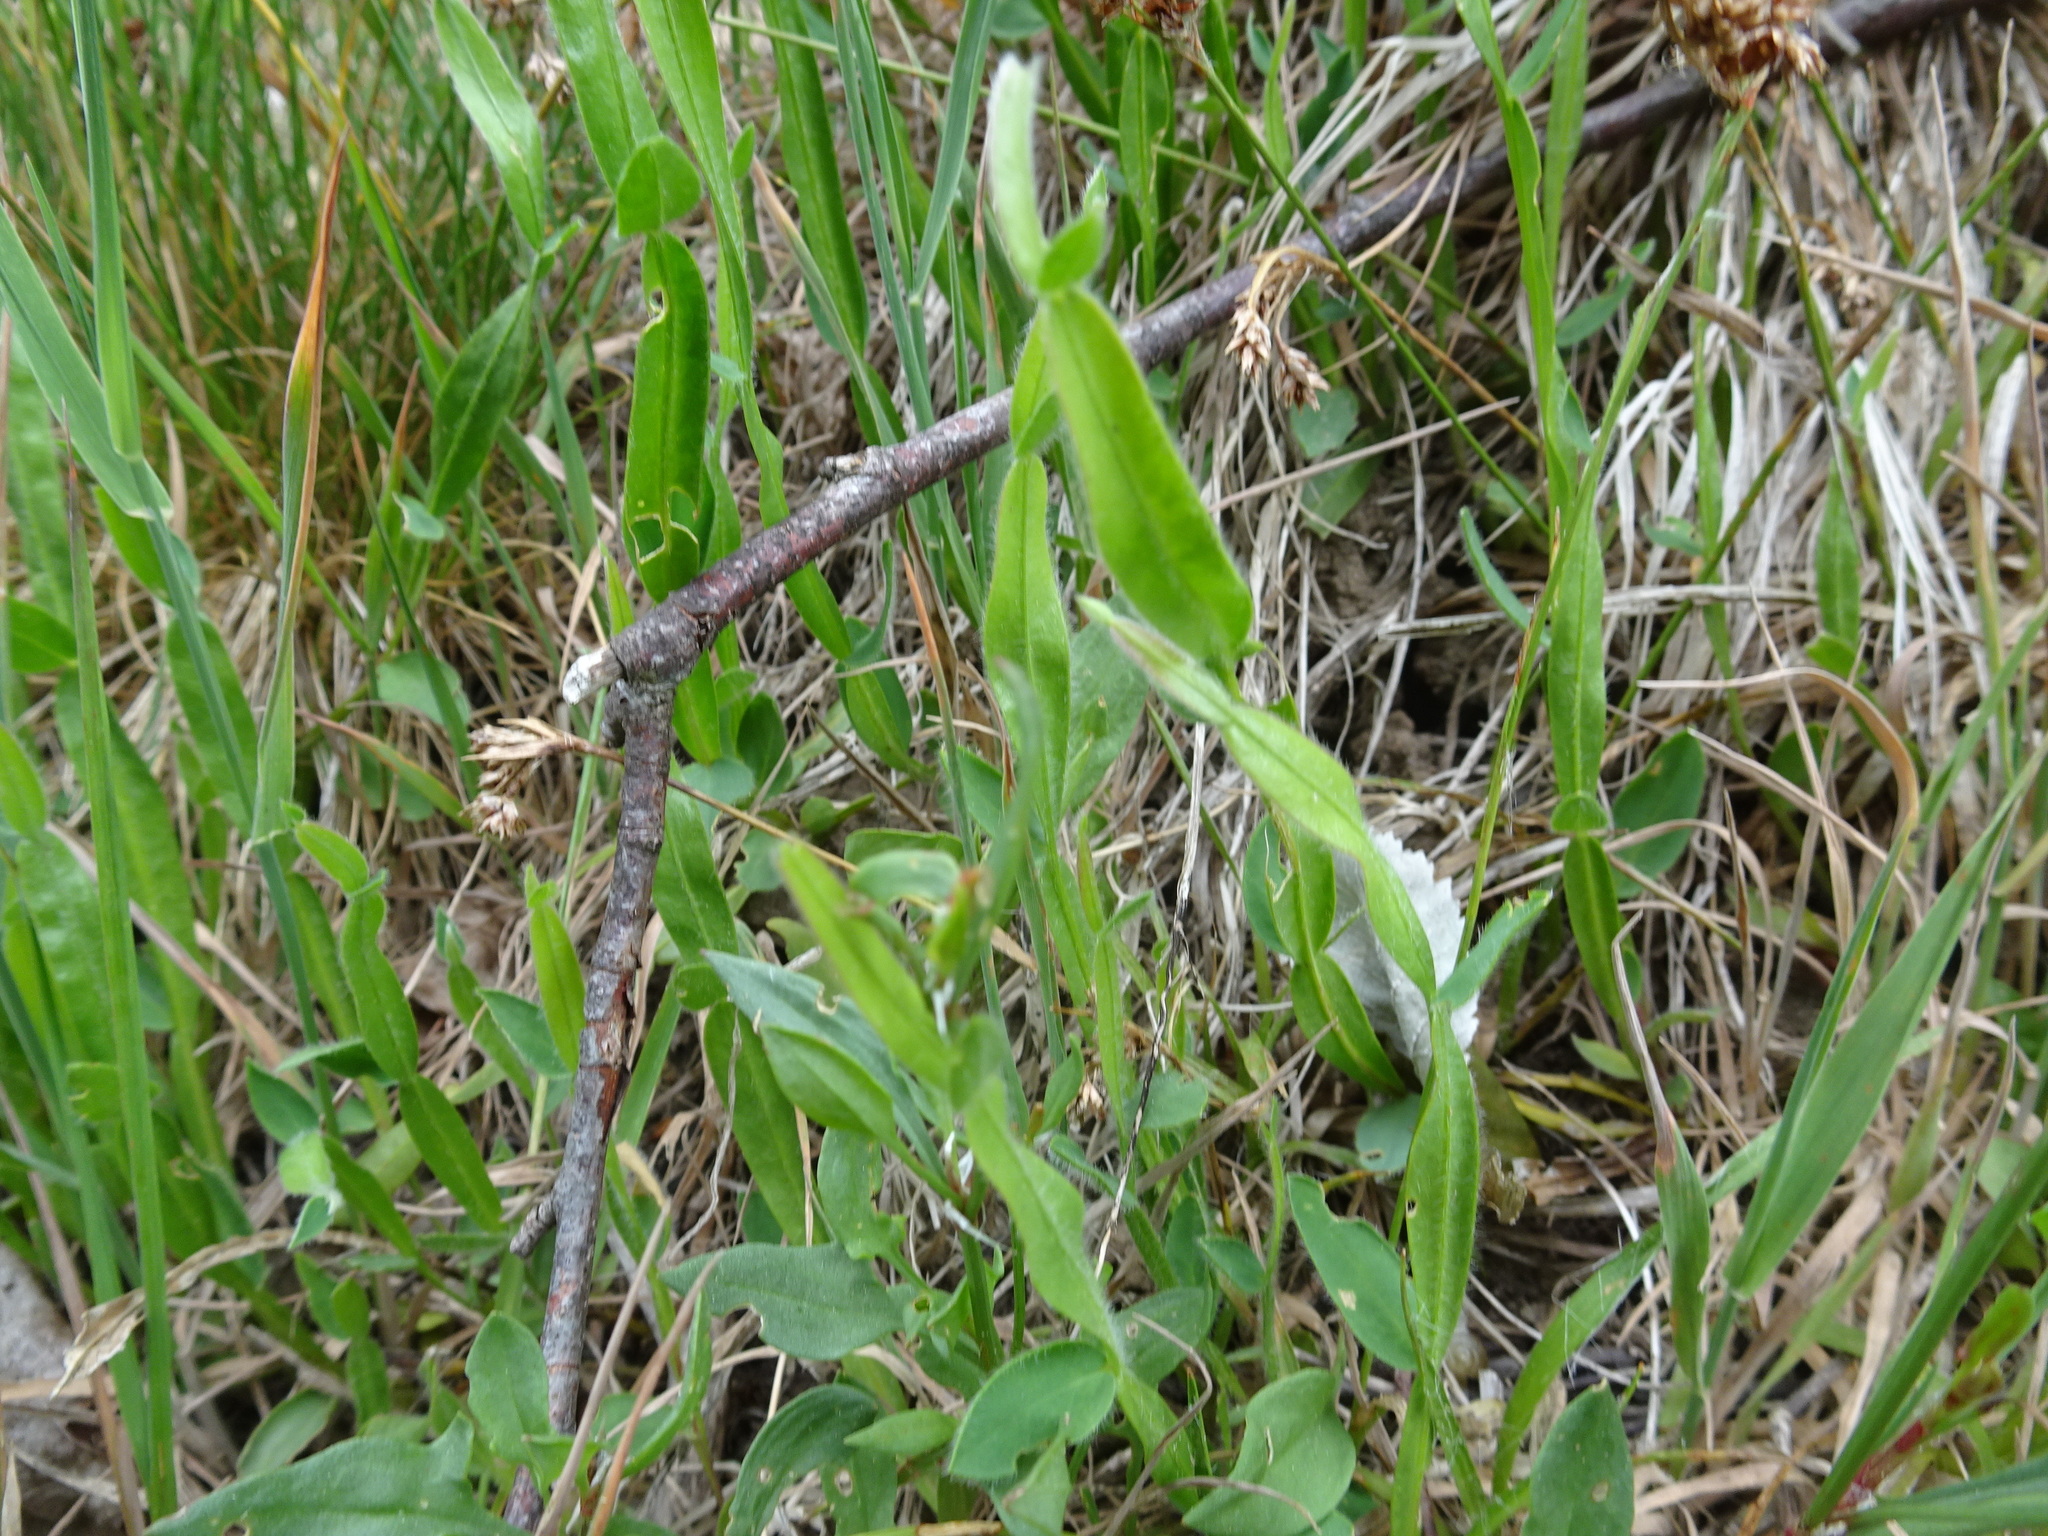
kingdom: Plantae
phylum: Tracheophyta
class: Magnoliopsida
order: Fabales
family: Fabaceae
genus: Genista
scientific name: Genista sagittalis
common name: Winged greenweed
